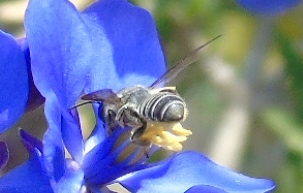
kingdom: Animalia
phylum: Arthropoda
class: Insecta
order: Hymenoptera
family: Megachilidae
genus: Megachile
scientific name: Megachile
